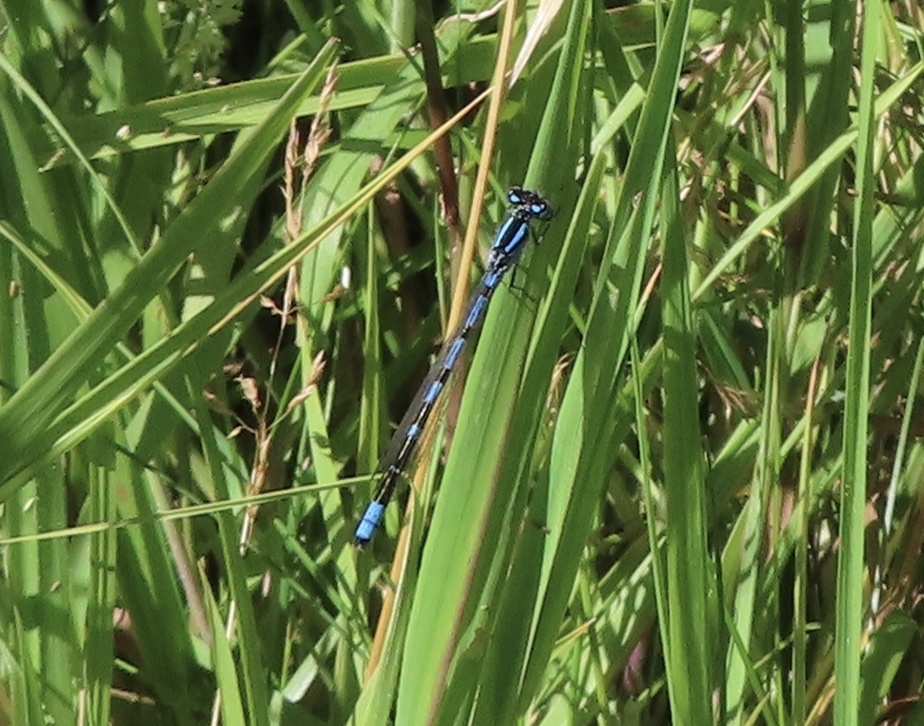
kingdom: Animalia
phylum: Arthropoda
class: Insecta
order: Odonata
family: Coenagrionidae
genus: Enallagma
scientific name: Enallagma cyathigerum
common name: Common blue damselfly
